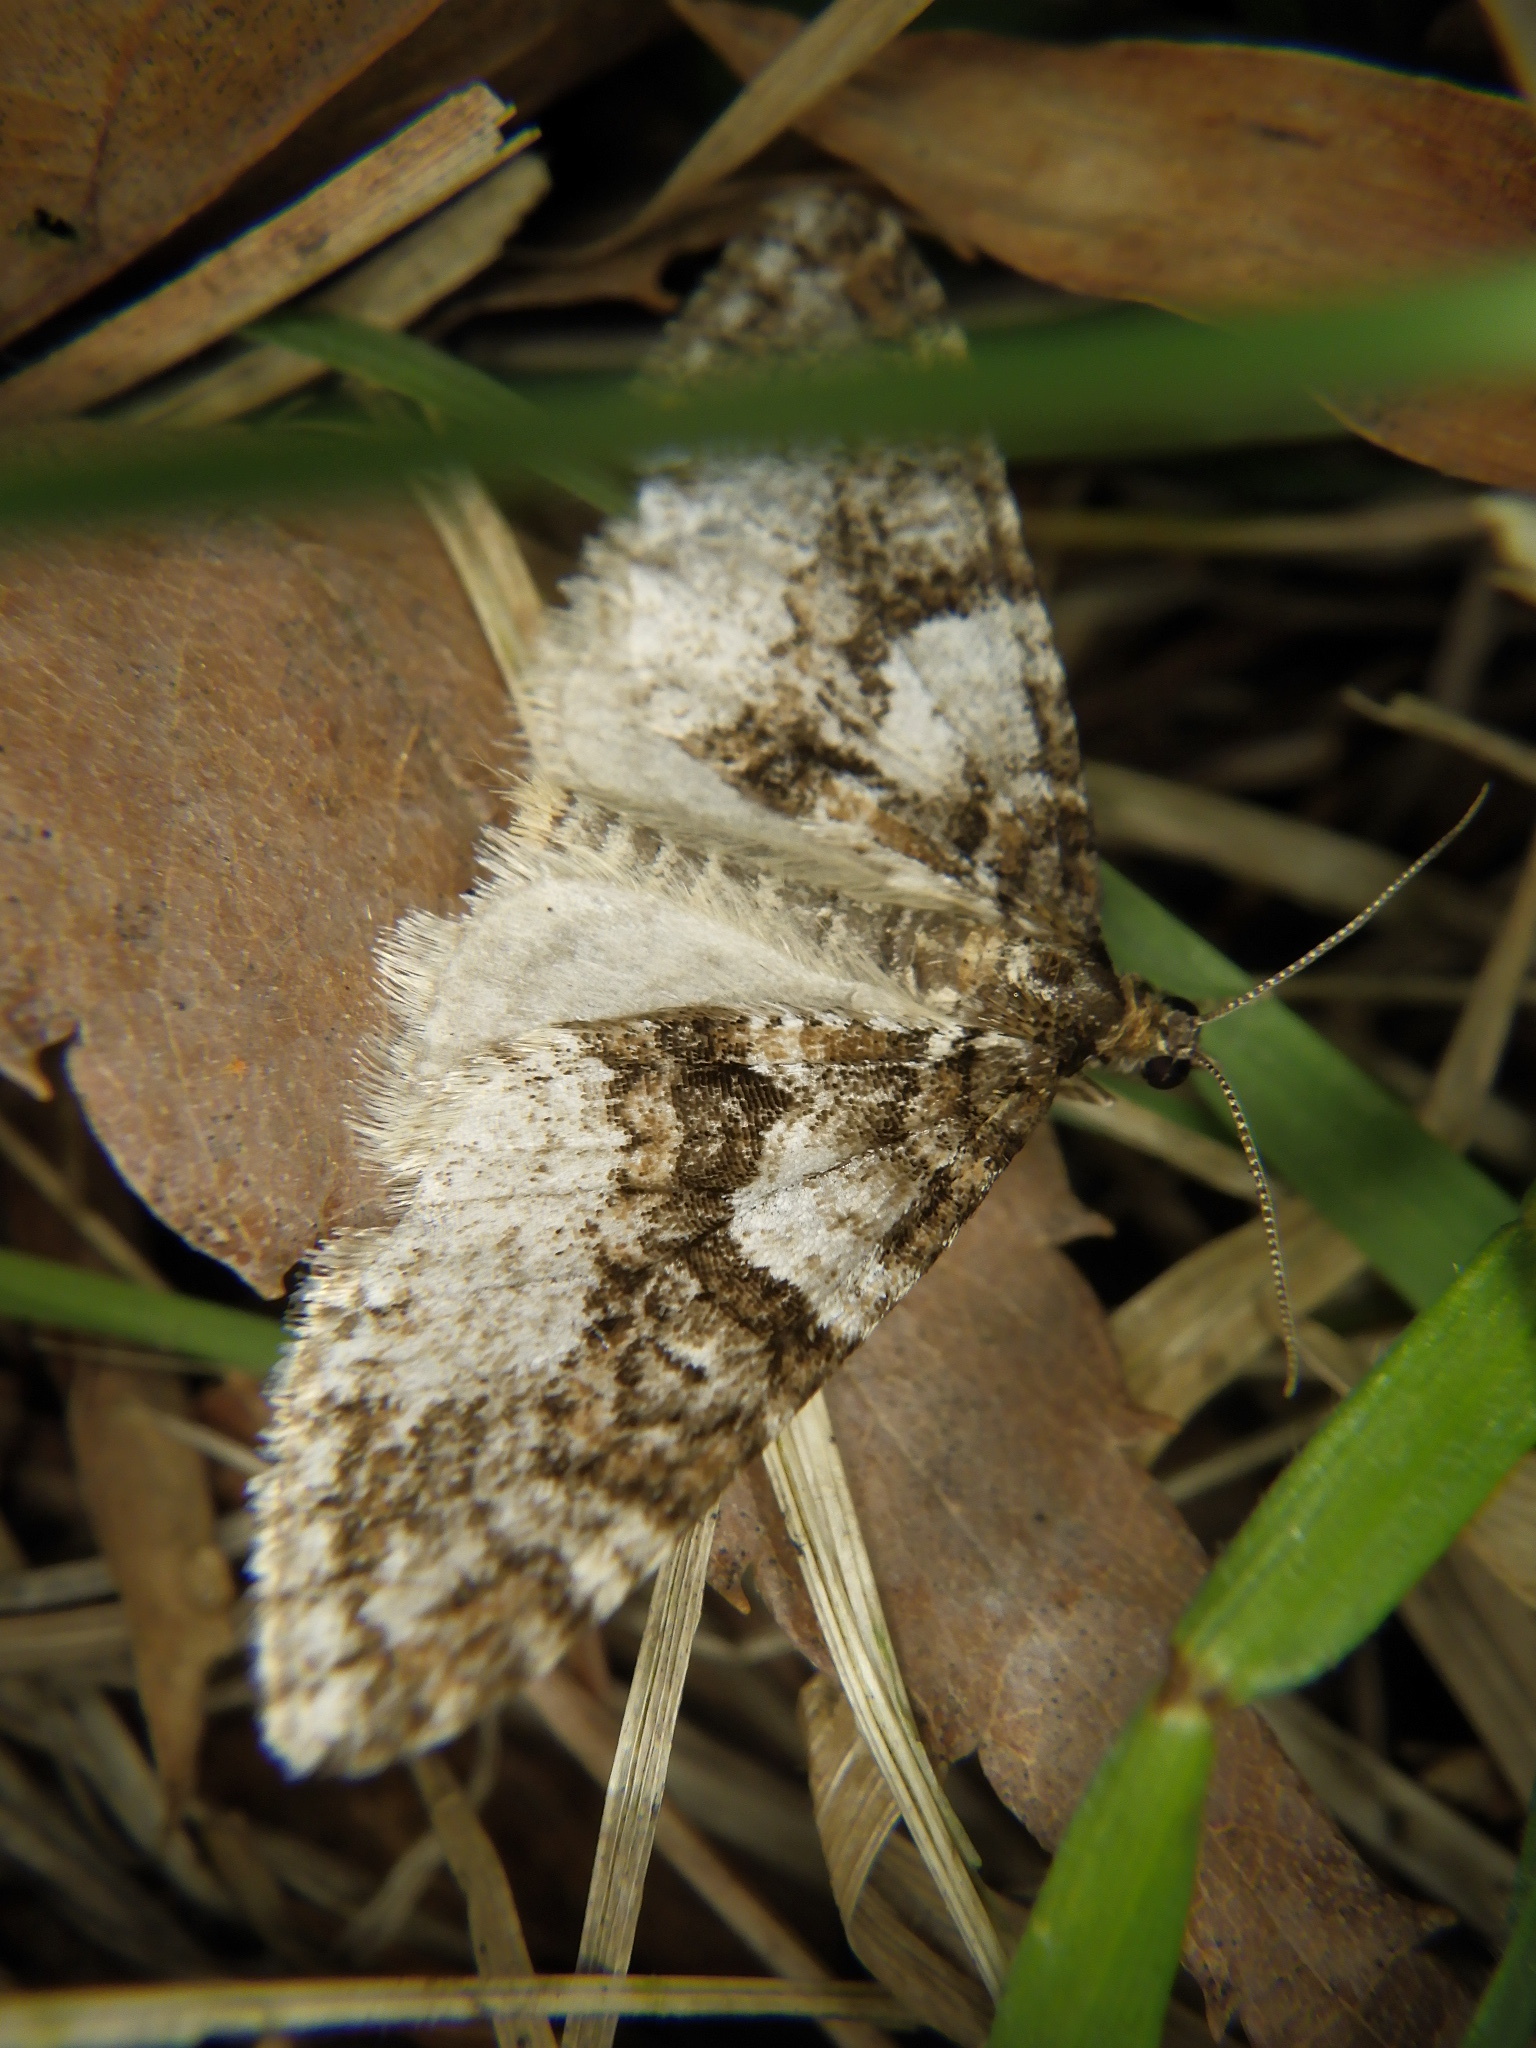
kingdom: Animalia
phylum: Arthropoda
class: Insecta
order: Lepidoptera
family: Geometridae
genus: Esakiopteryx
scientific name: Esakiopteryx volitans
